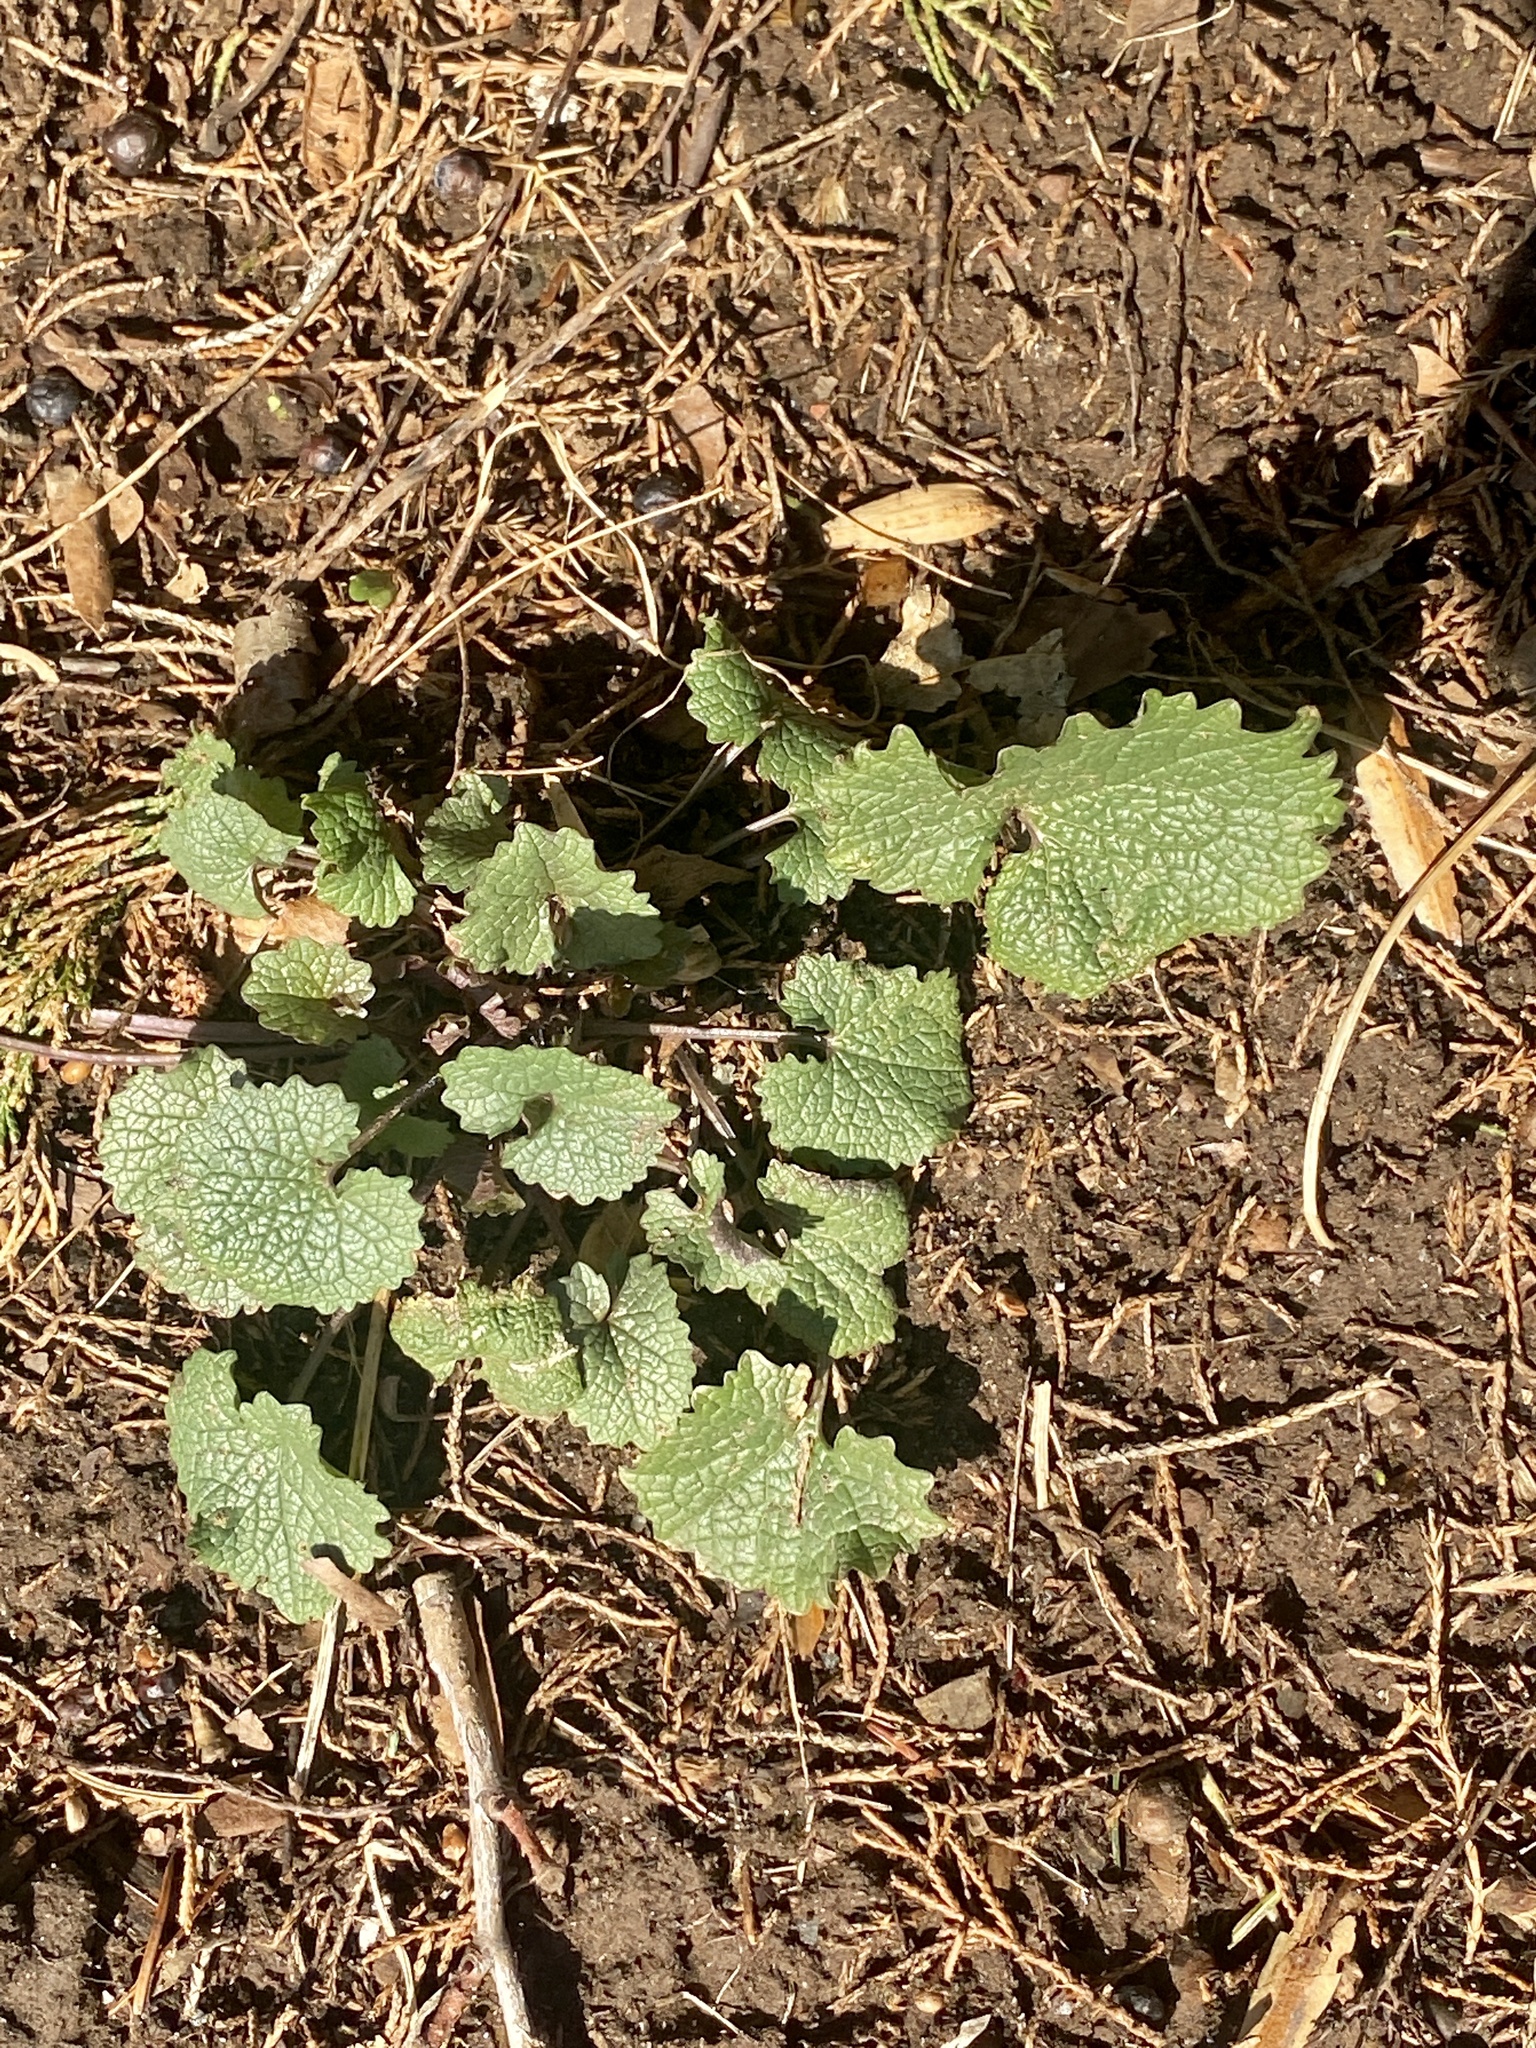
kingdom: Plantae
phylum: Tracheophyta
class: Magnoliopsida
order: Brassicales
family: Brassicaceae
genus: Alliaria
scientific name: Alliaria petiolata
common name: Garlic mustard
